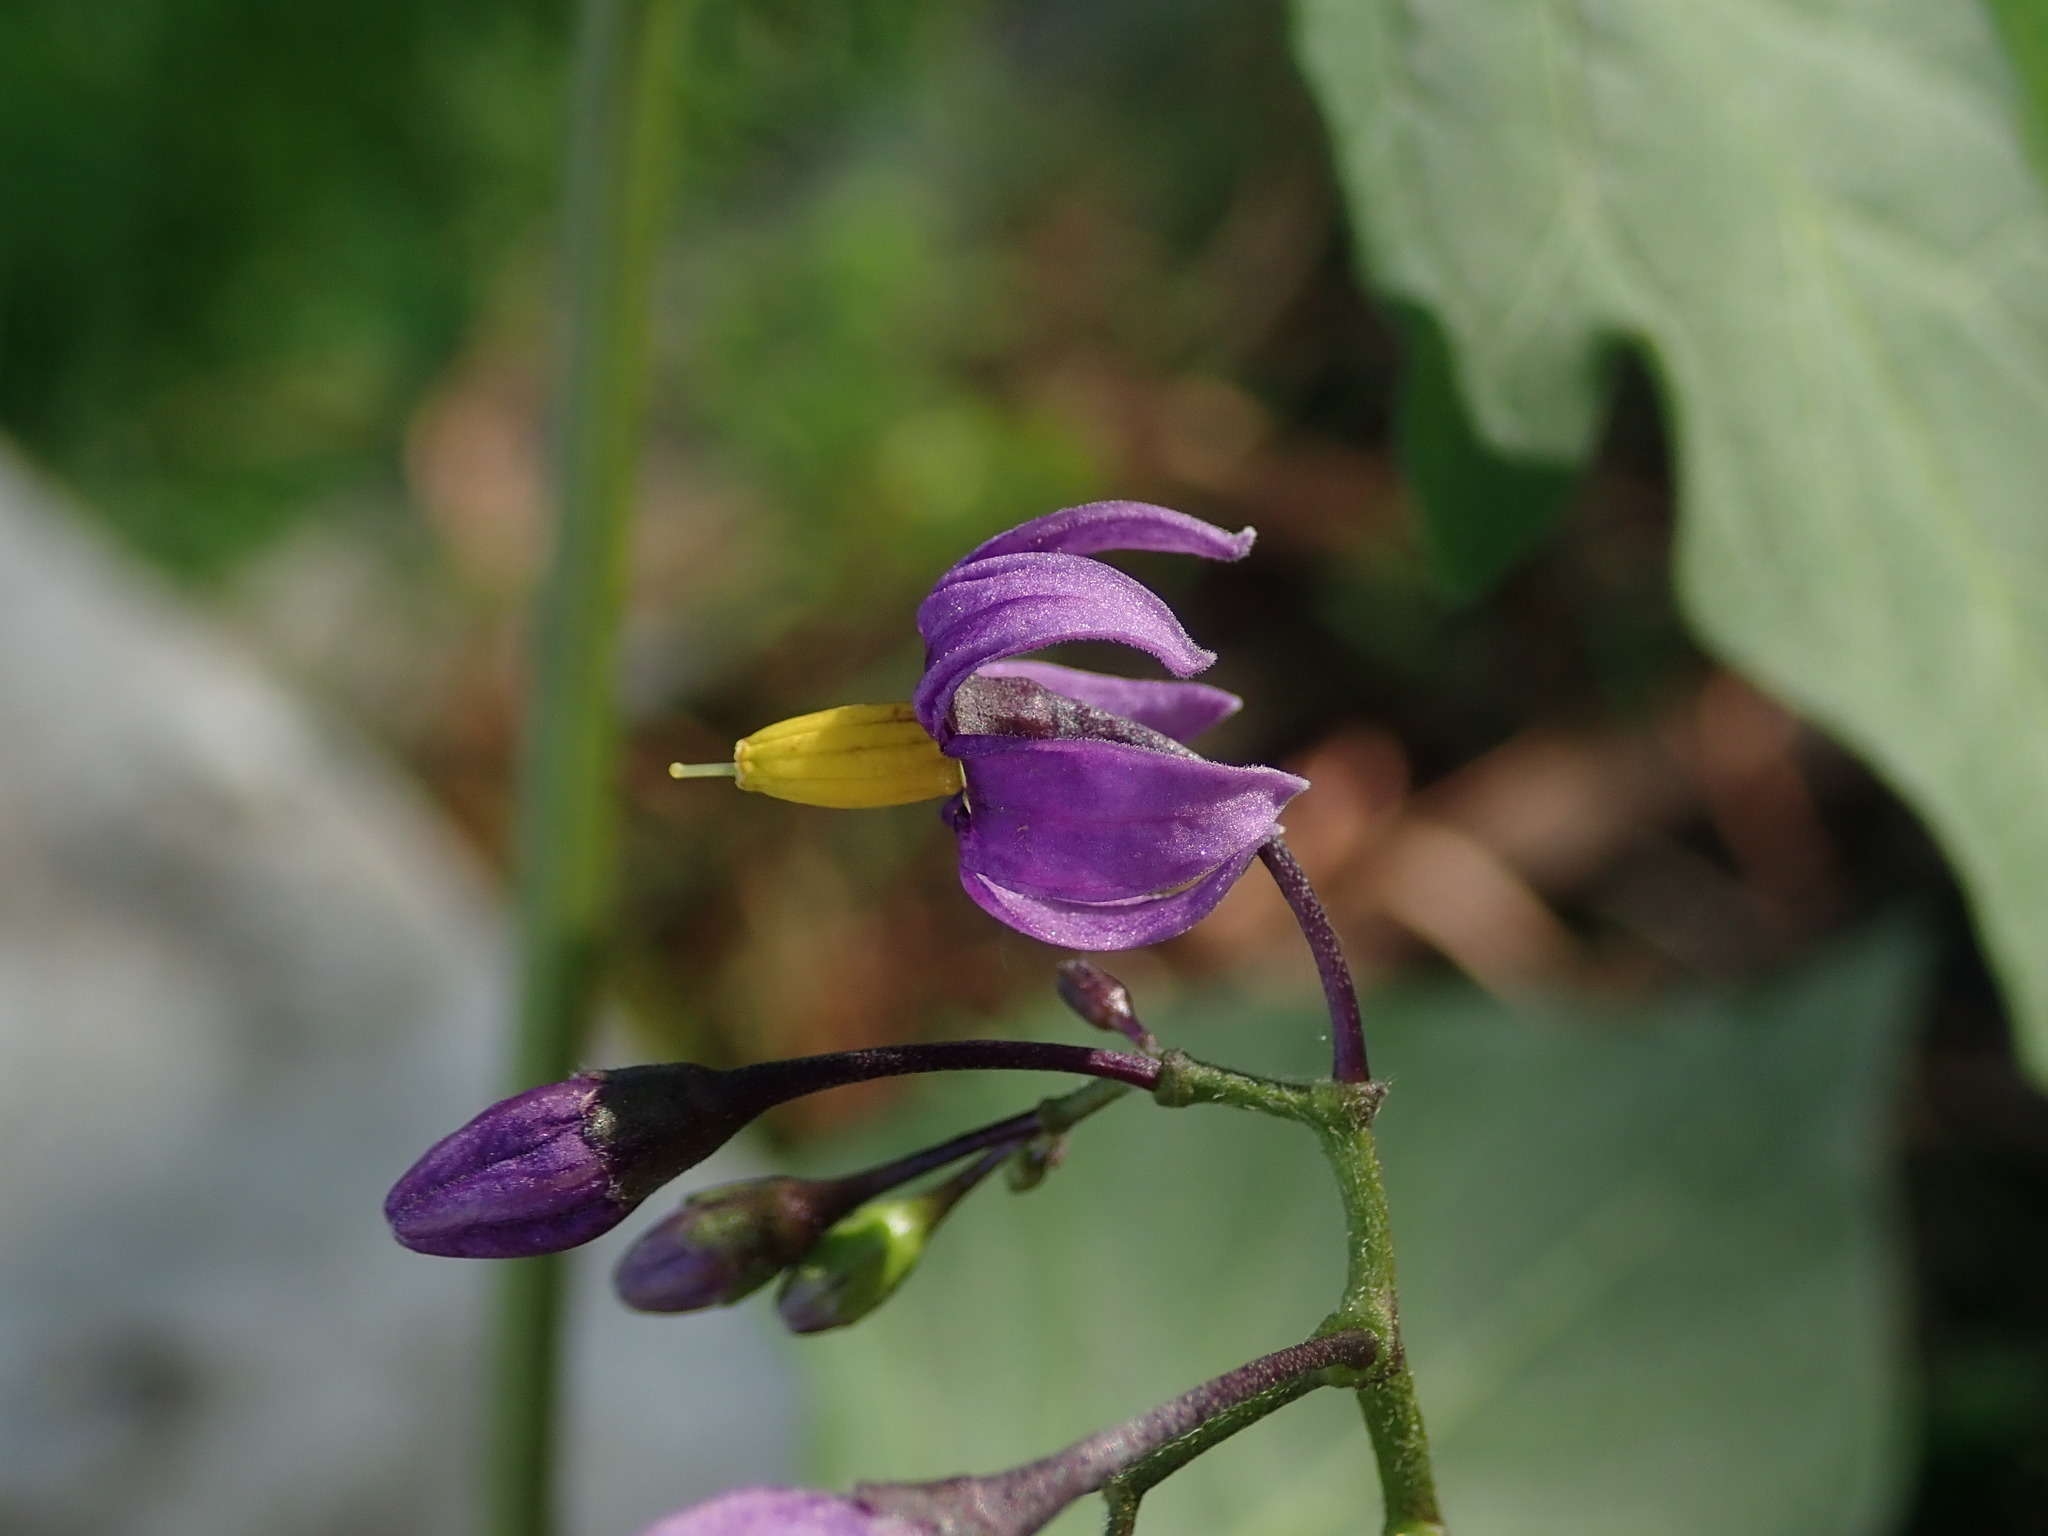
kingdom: Plantae
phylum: Tracheophyta
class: Magnoliopsida
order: Solanales
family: Solanaceae
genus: Solanum
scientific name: Solanum dulcamara
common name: Climbing nightshade
